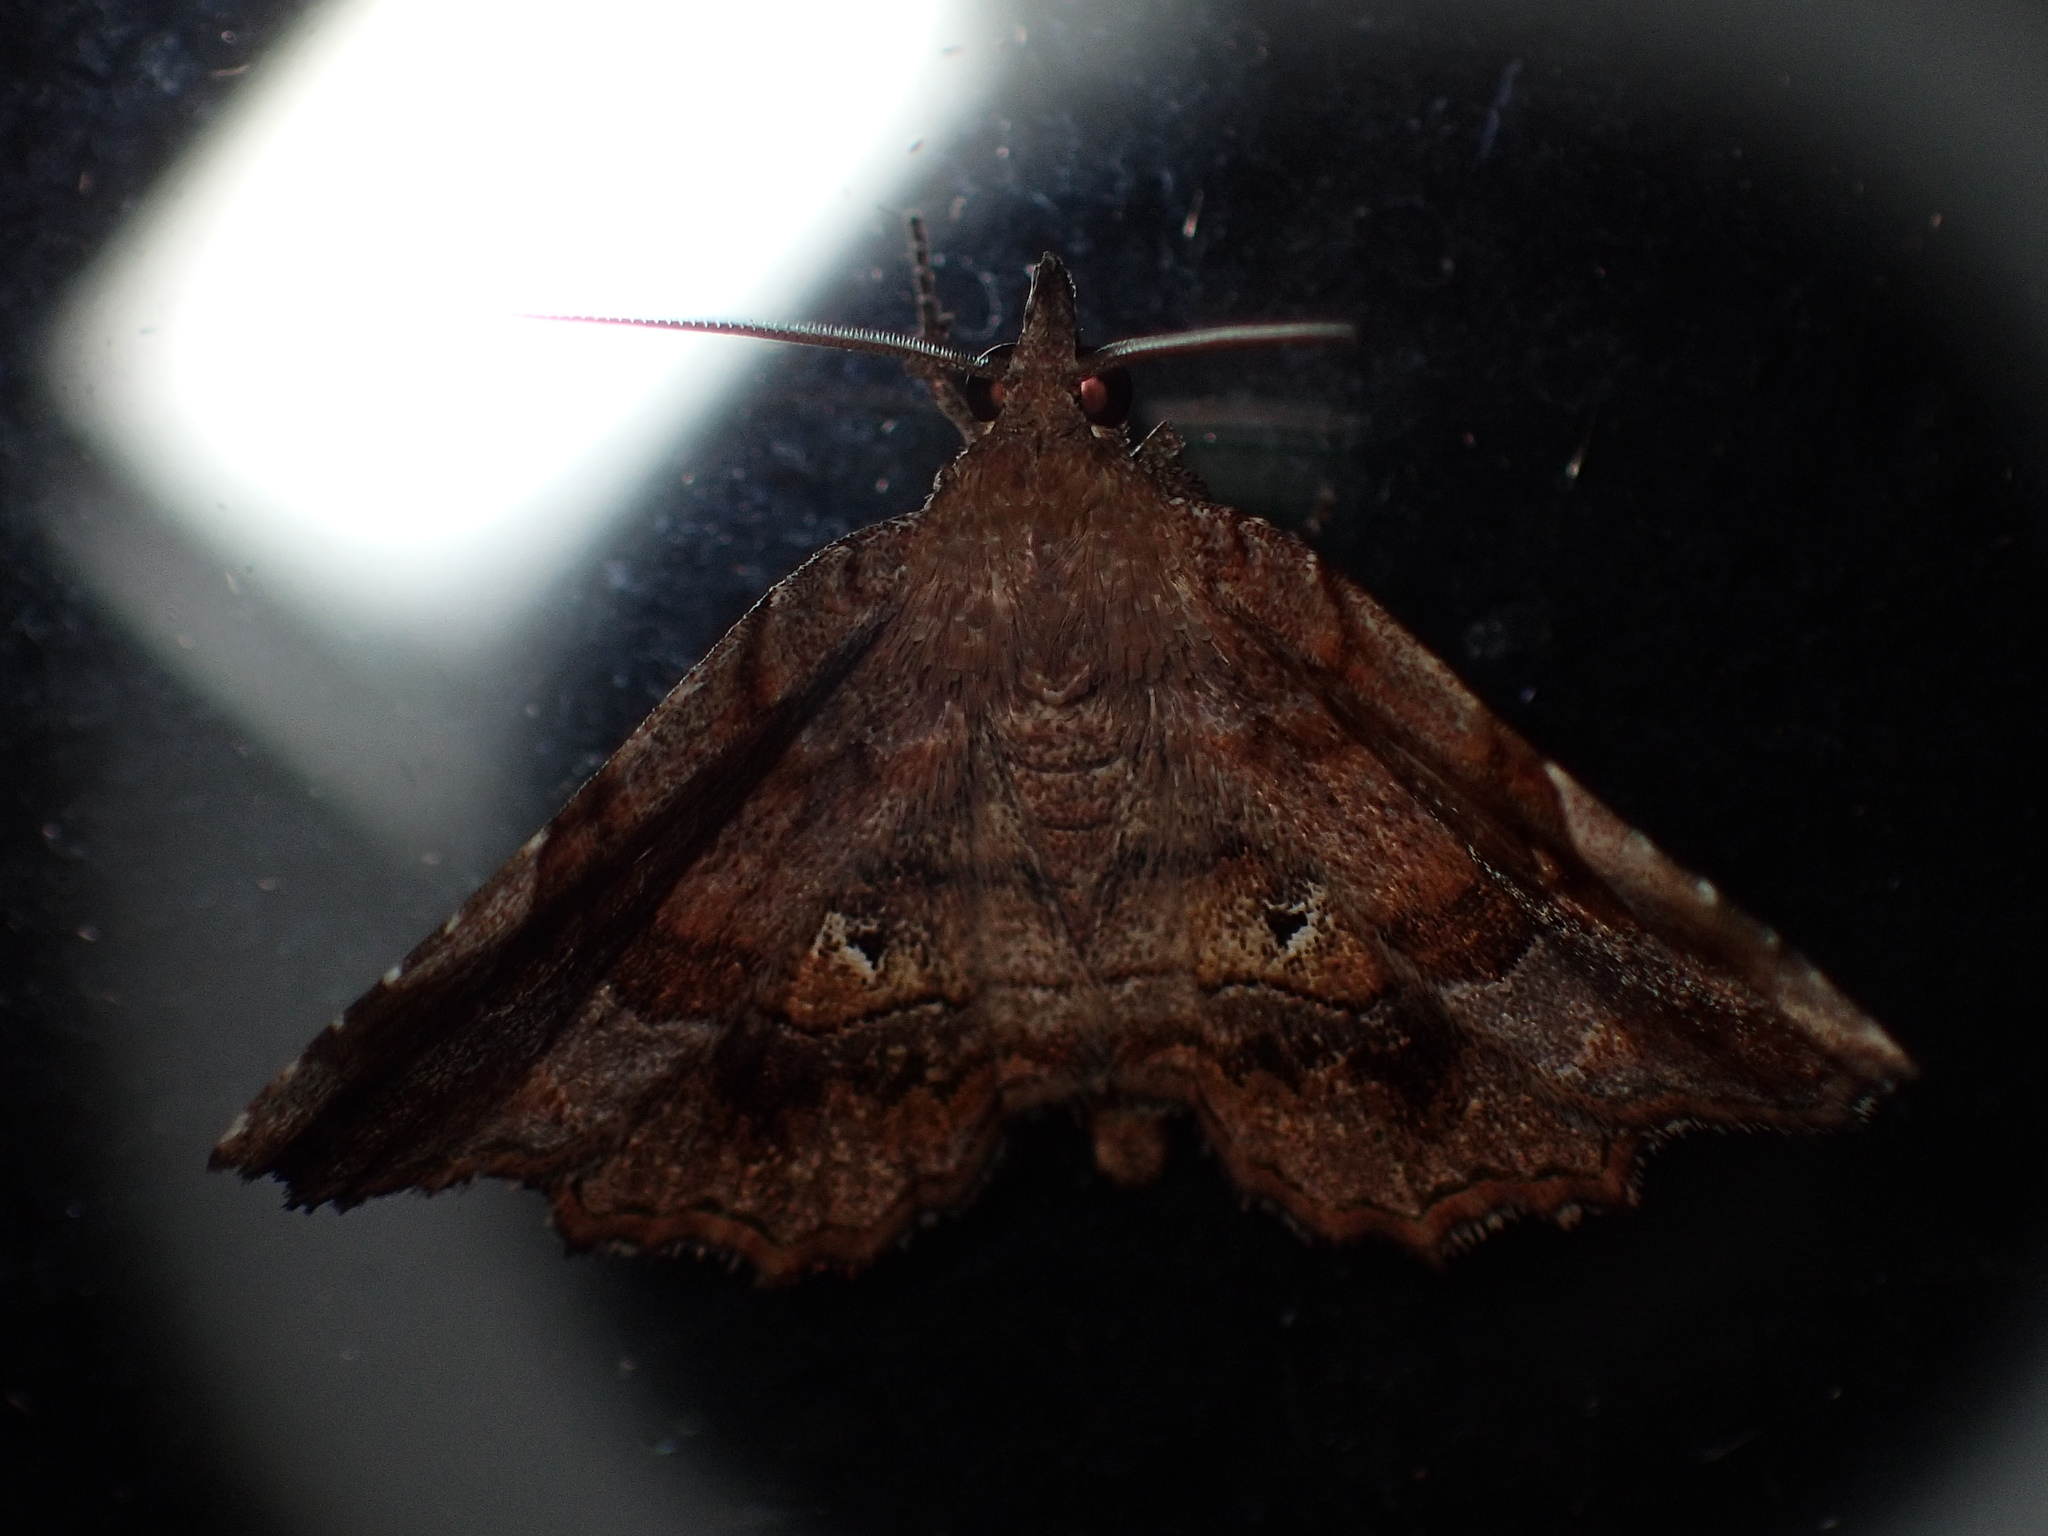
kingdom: Animalia
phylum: Arthropoda
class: Insecta
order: Lepidoptera
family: Erebidae
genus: Pangrapta
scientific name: Pangrapta decoralis
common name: Decorated owlet
